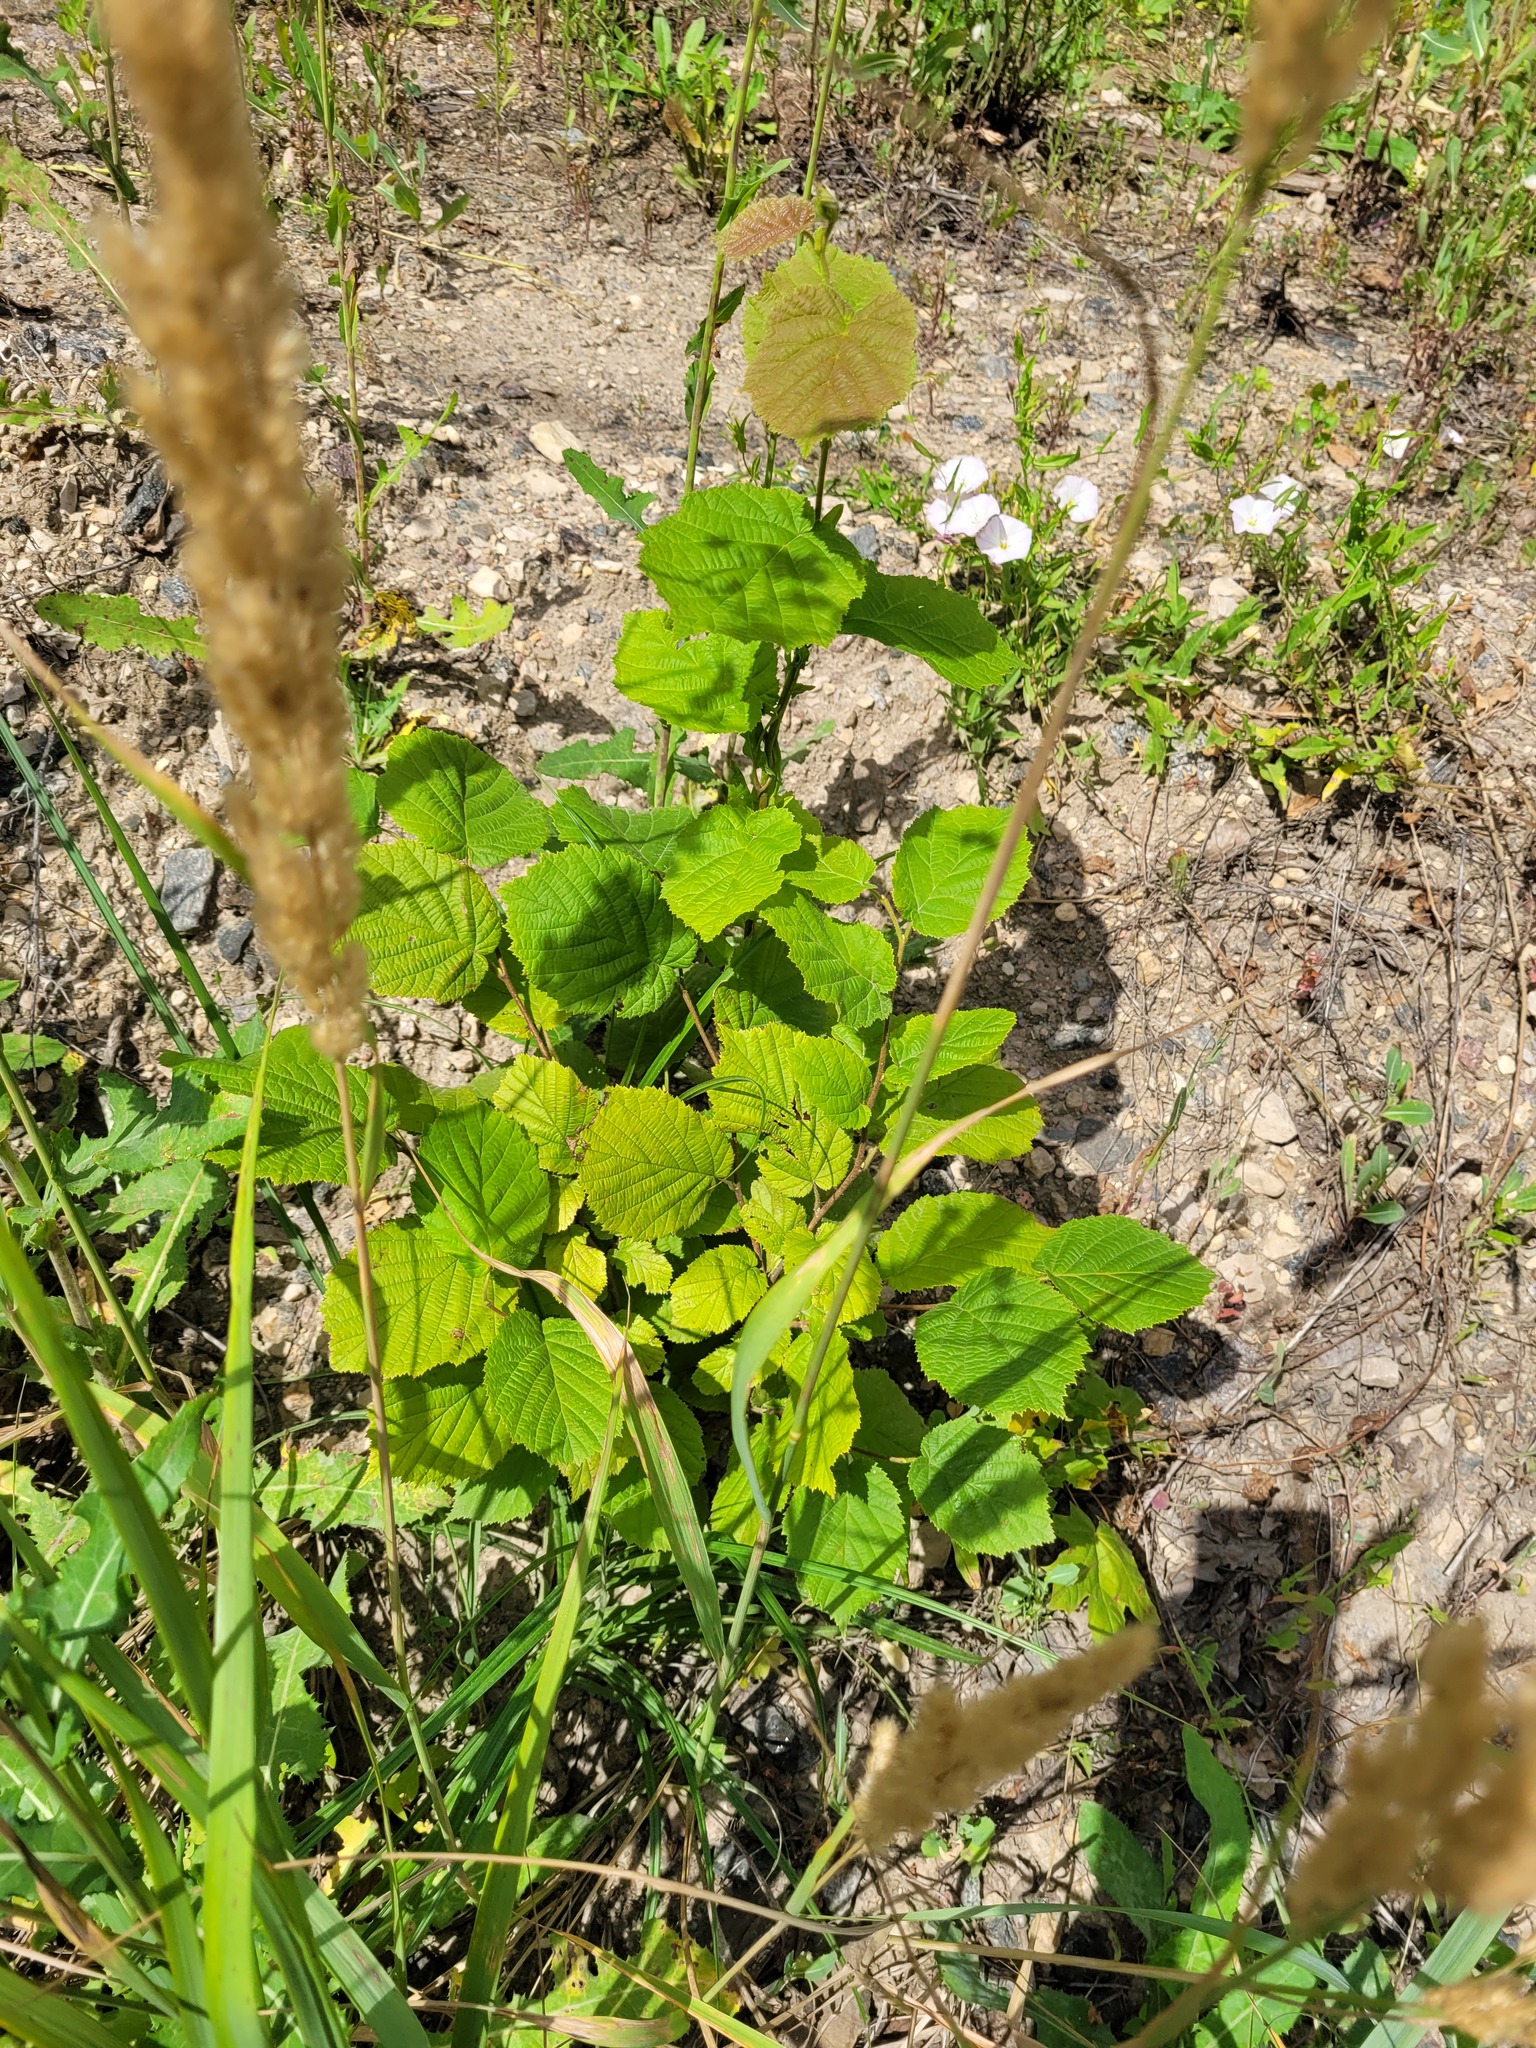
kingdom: Plantae
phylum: Tracheophyta
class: Magnoliopsida
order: Fagales
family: Betulaceae
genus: Corylus
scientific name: Corylus avellana
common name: European hazel
